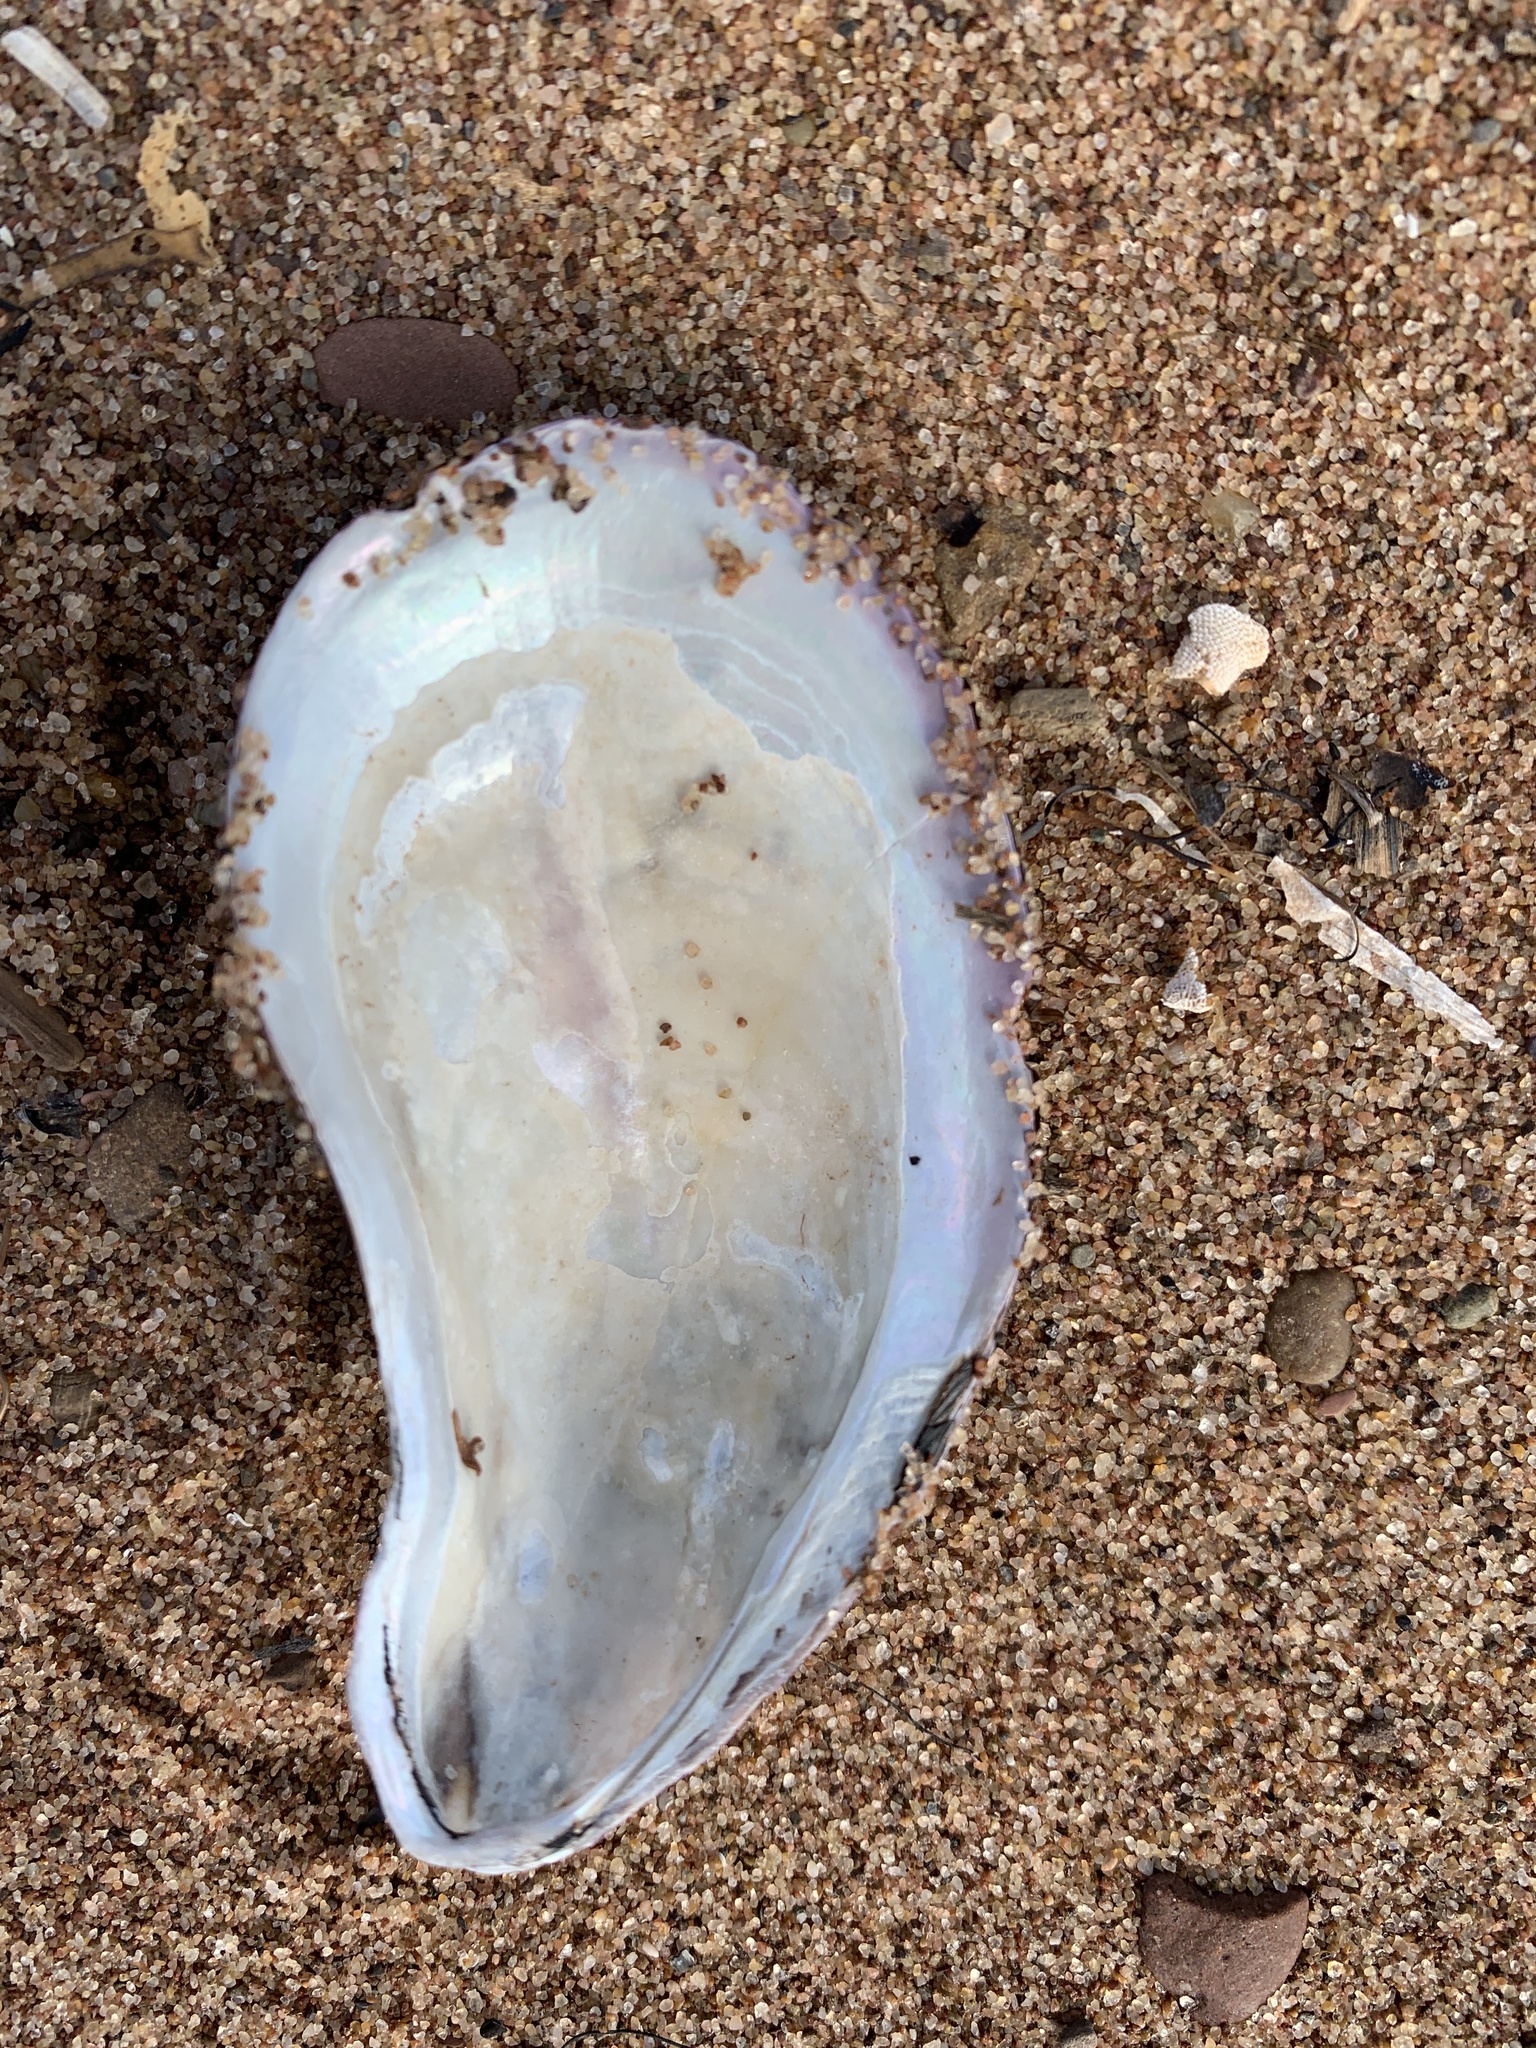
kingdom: Animalia
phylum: Mollusca
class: Bivalvia
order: Mytilida
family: Mytilidae
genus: Modiolus
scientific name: Modiolus modiolus
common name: Horse-mussel
